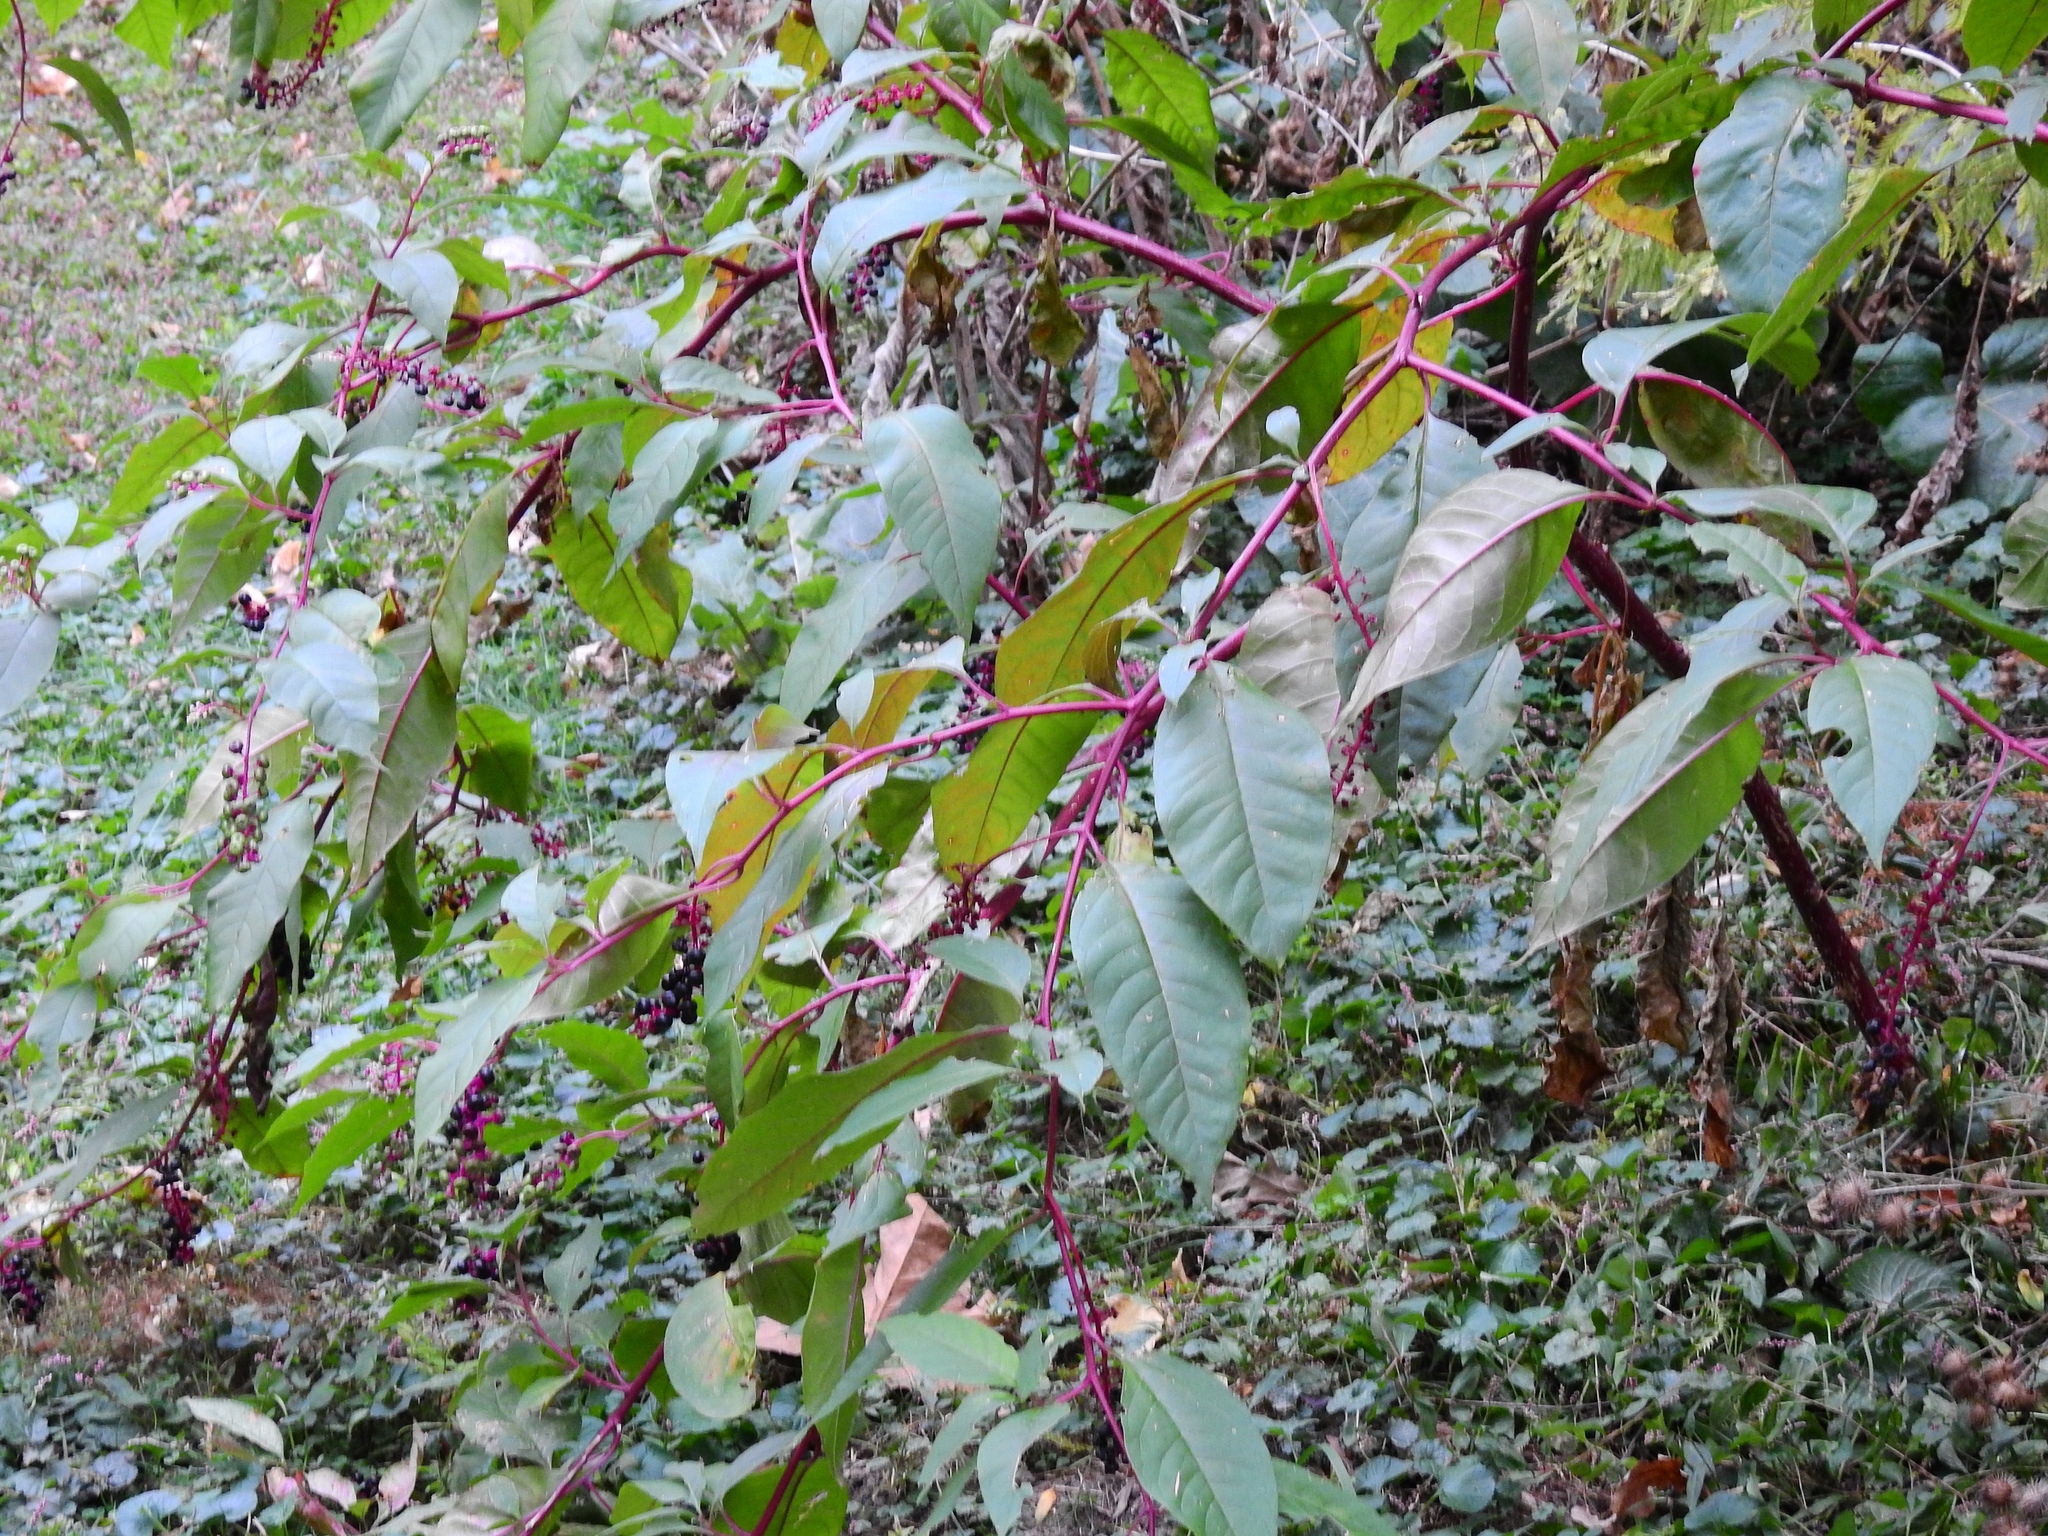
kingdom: Plantae
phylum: Tracheophyta
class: Magnoliopsida
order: Caryophyllales
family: Phytolaccaceae
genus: Phytolacca
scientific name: Phytolacca americana
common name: American pokeweed
